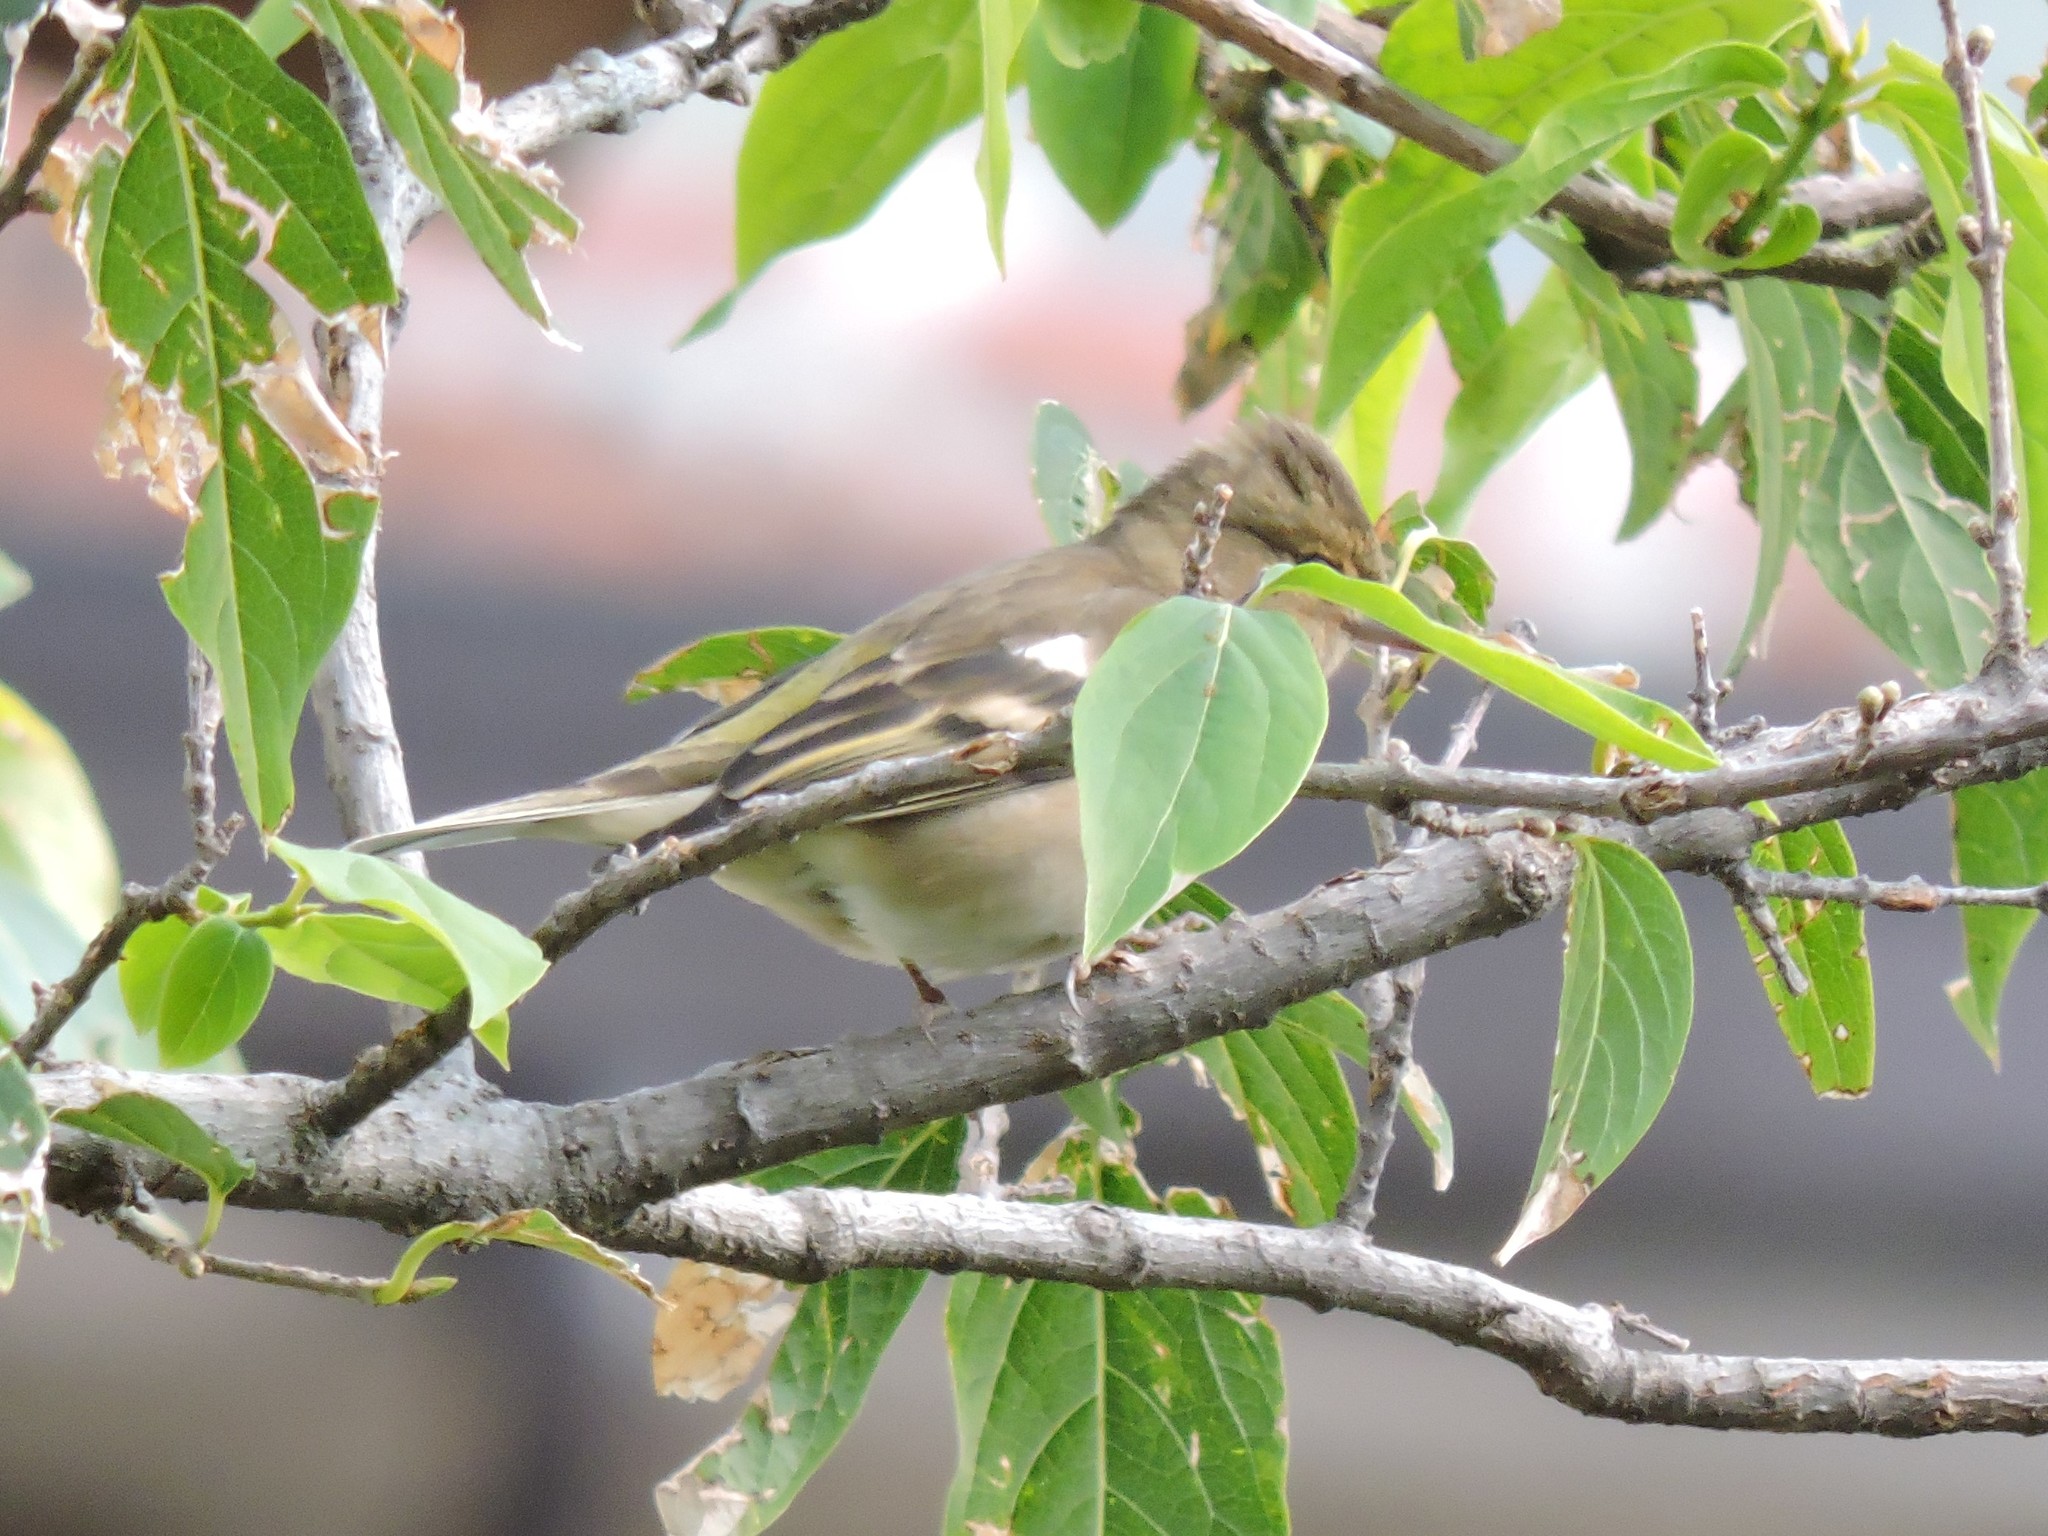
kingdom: Animalia
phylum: Chordata
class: Aves
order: Passeriformes
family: Fringillidae
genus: Fringilla
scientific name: Fringilla coelebs
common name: Common chaffinch
